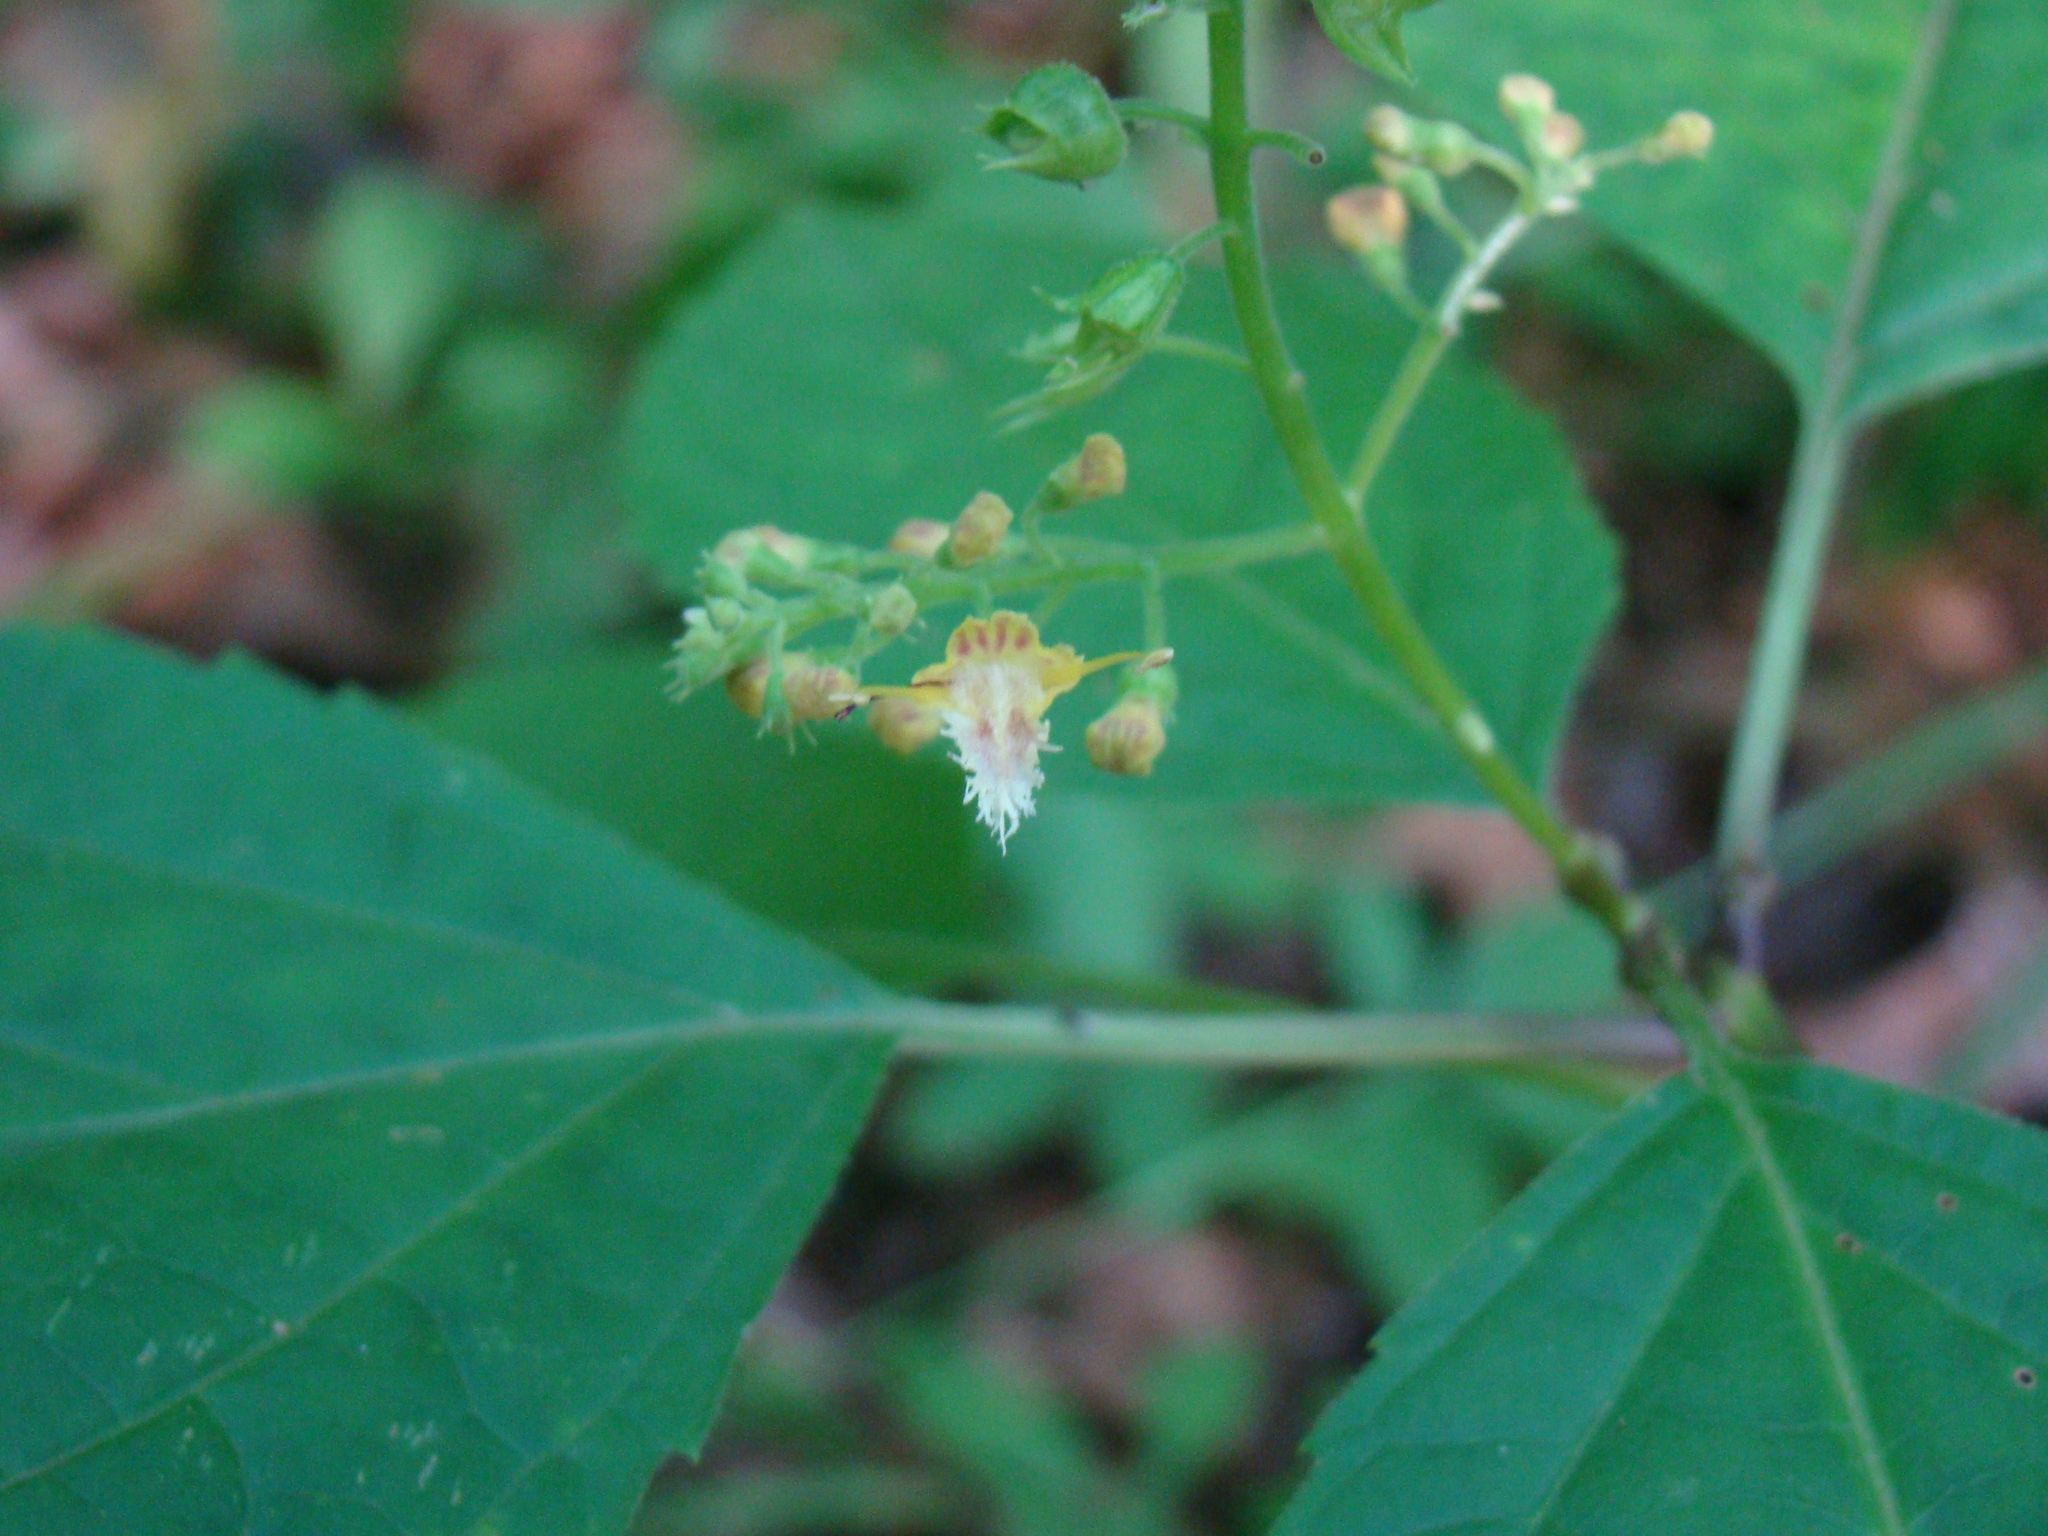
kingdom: Plantae
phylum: Tracheophyta
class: Magnoliopsida
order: Lamiales
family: Lamiaceae
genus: Collinsonia
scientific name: Collinsonia canadensis
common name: Northern horsebalm
